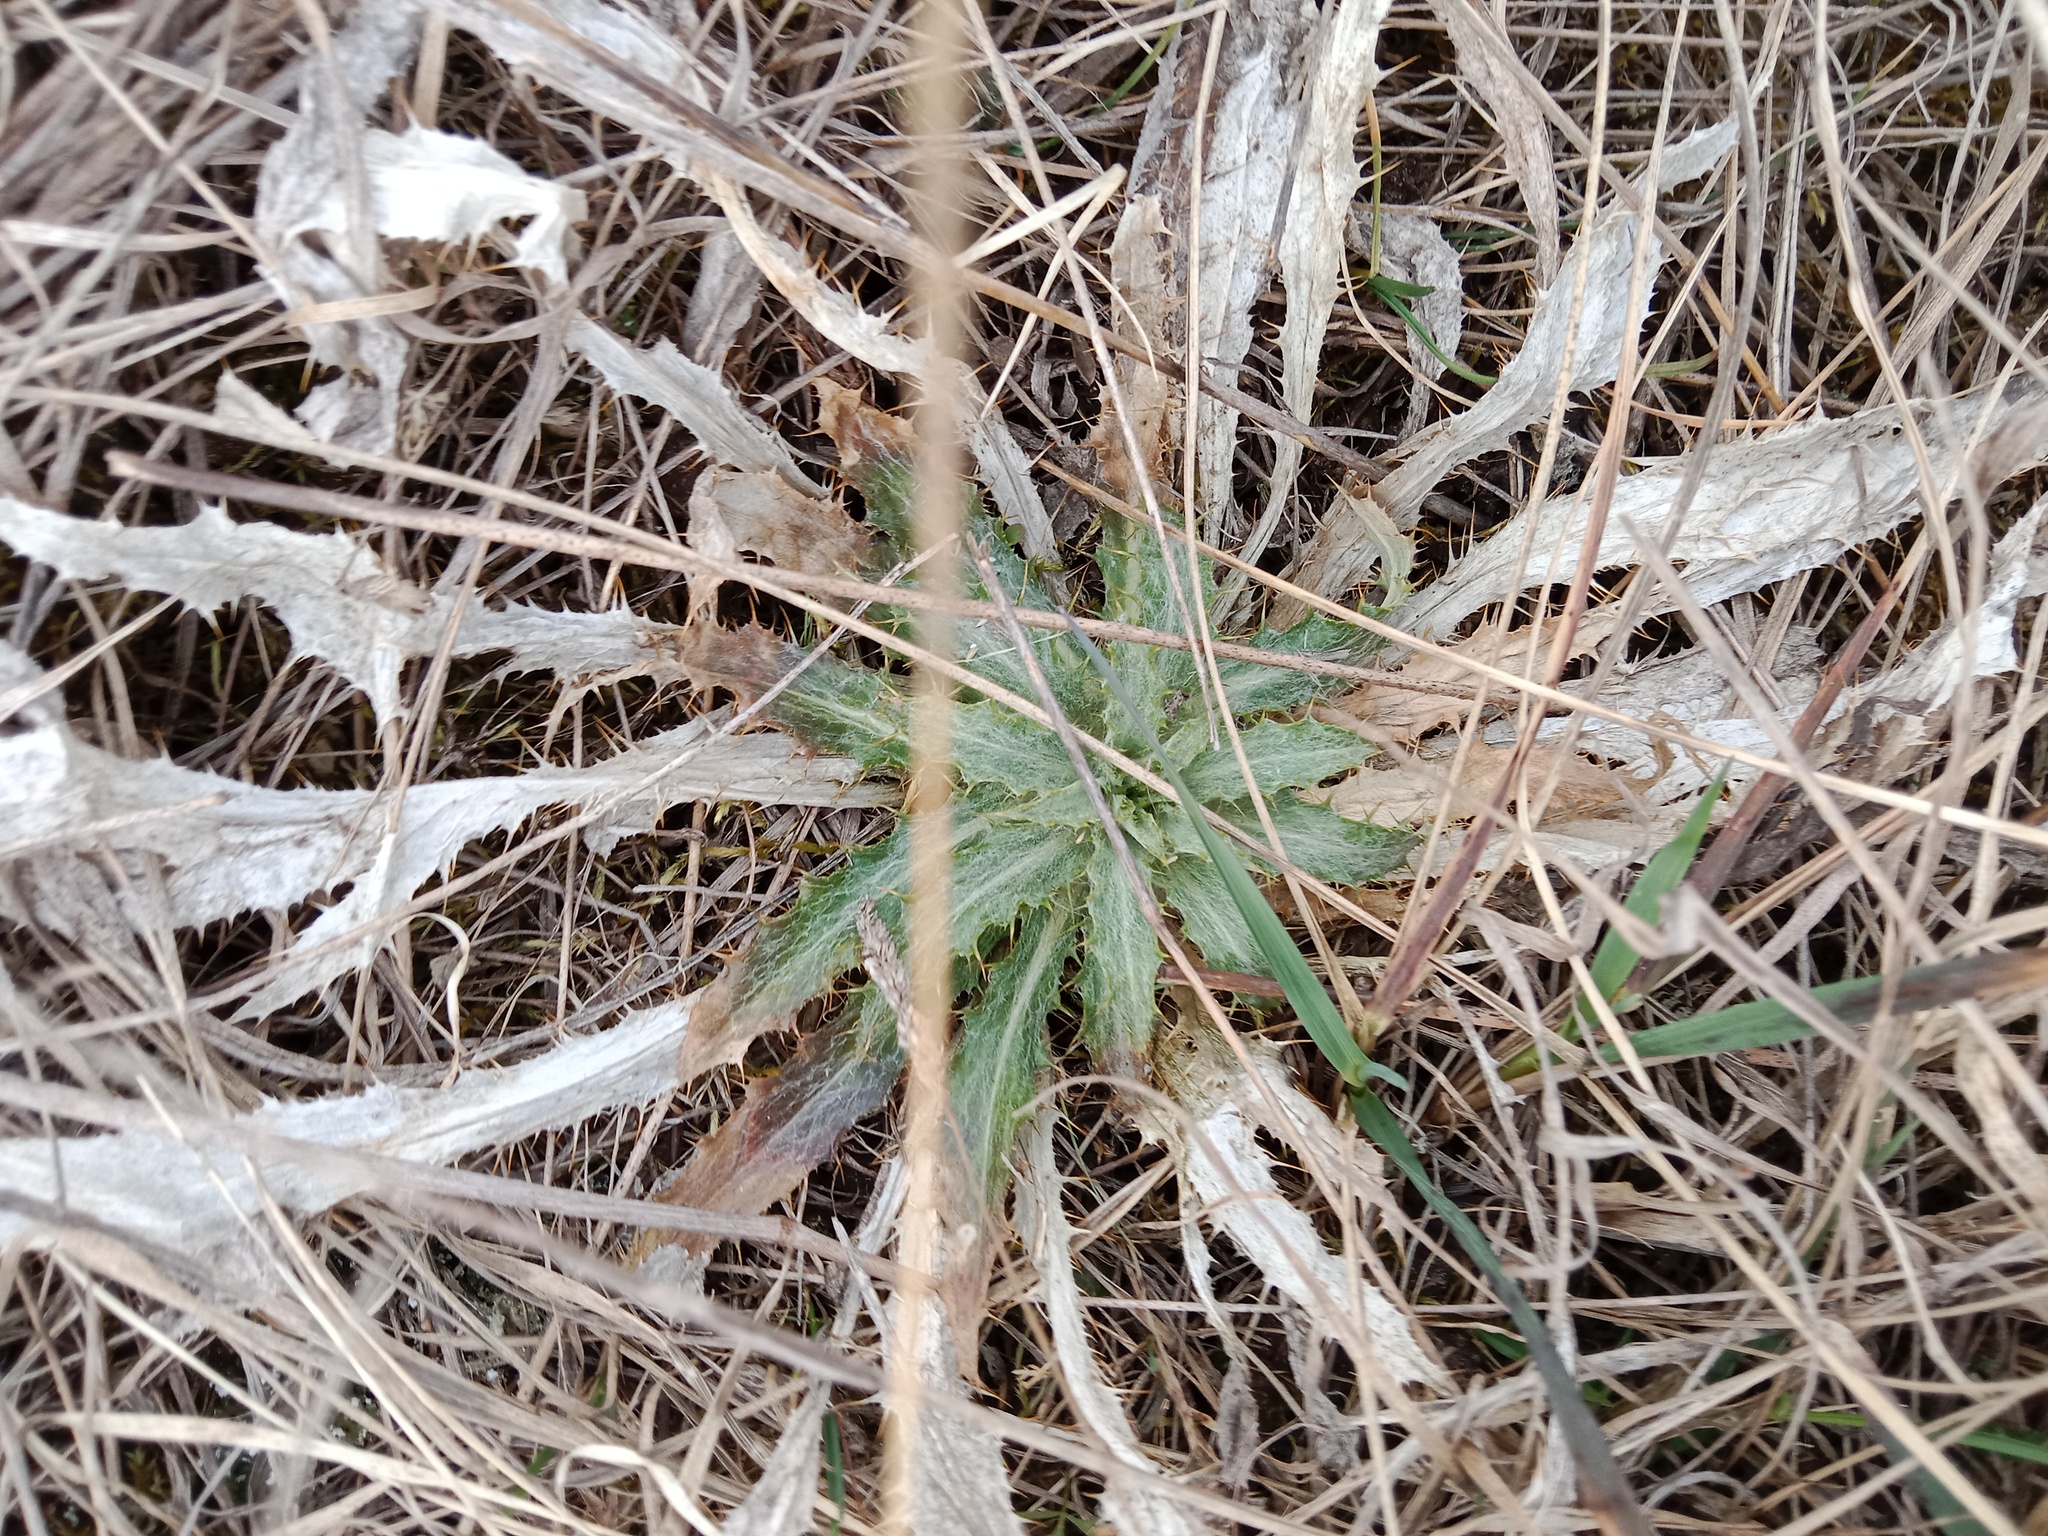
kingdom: Plantae
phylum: Tracheophyta
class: Magnoliopsida
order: Asterales
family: Asteraceae
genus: Carlina
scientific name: Carlina biebersteinii
